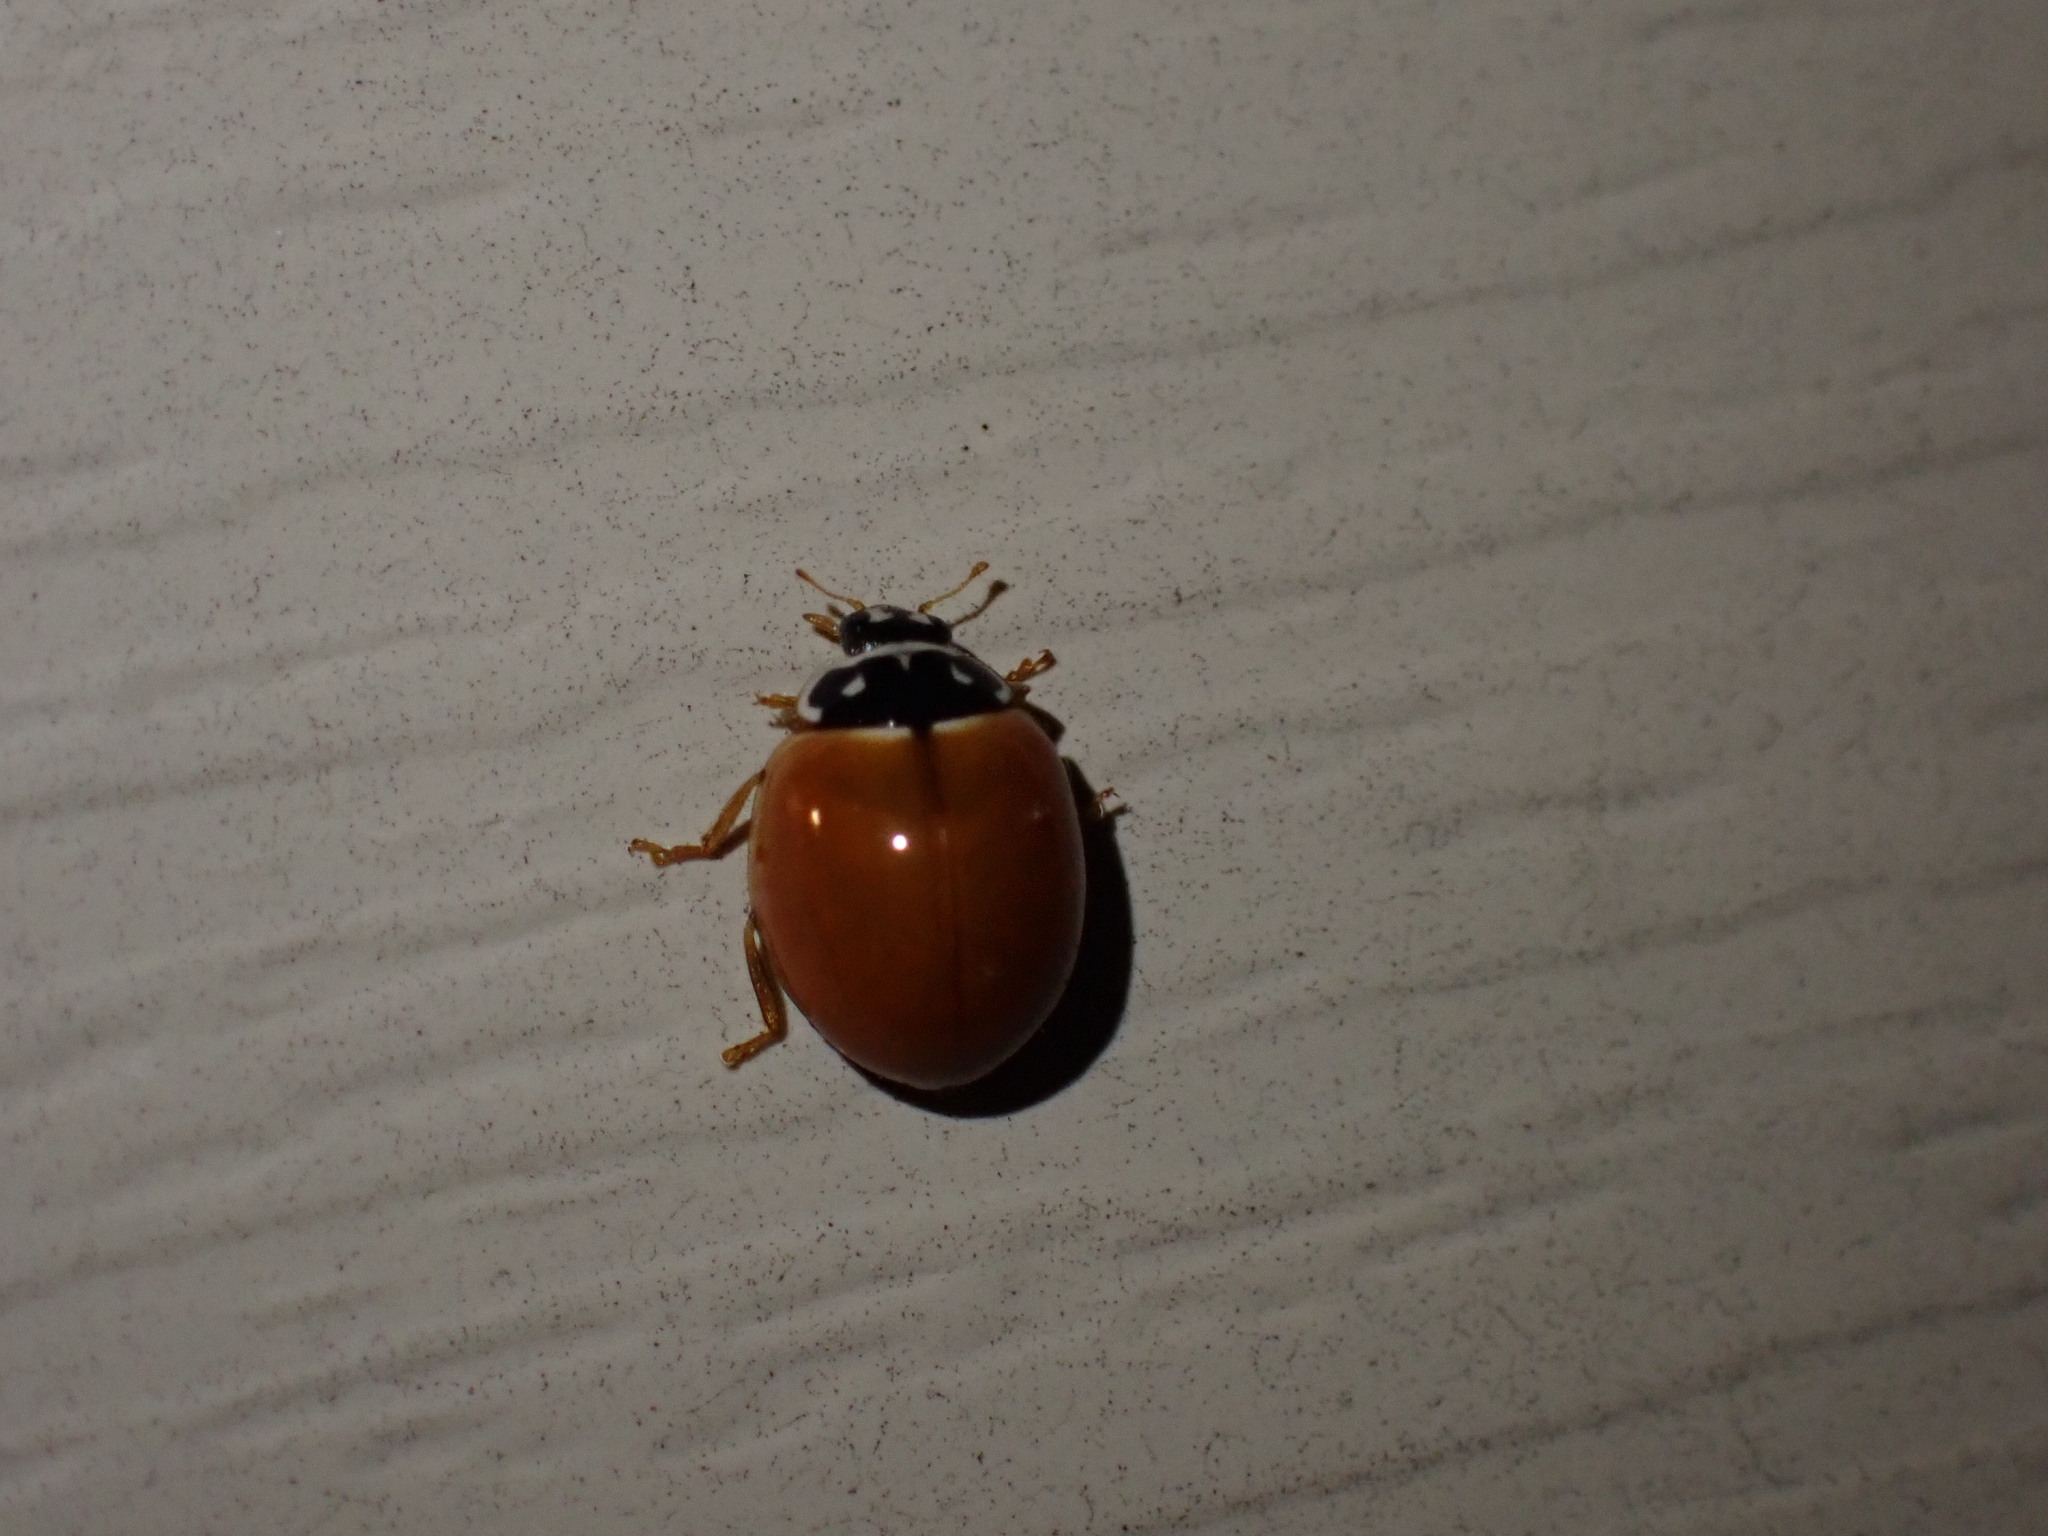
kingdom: Animalia
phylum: Arthropoda
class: Insecta
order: Coleoptera
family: Coccinellidae
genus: Cycloneda
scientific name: Cycloneda munda
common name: Polished lady beetle
